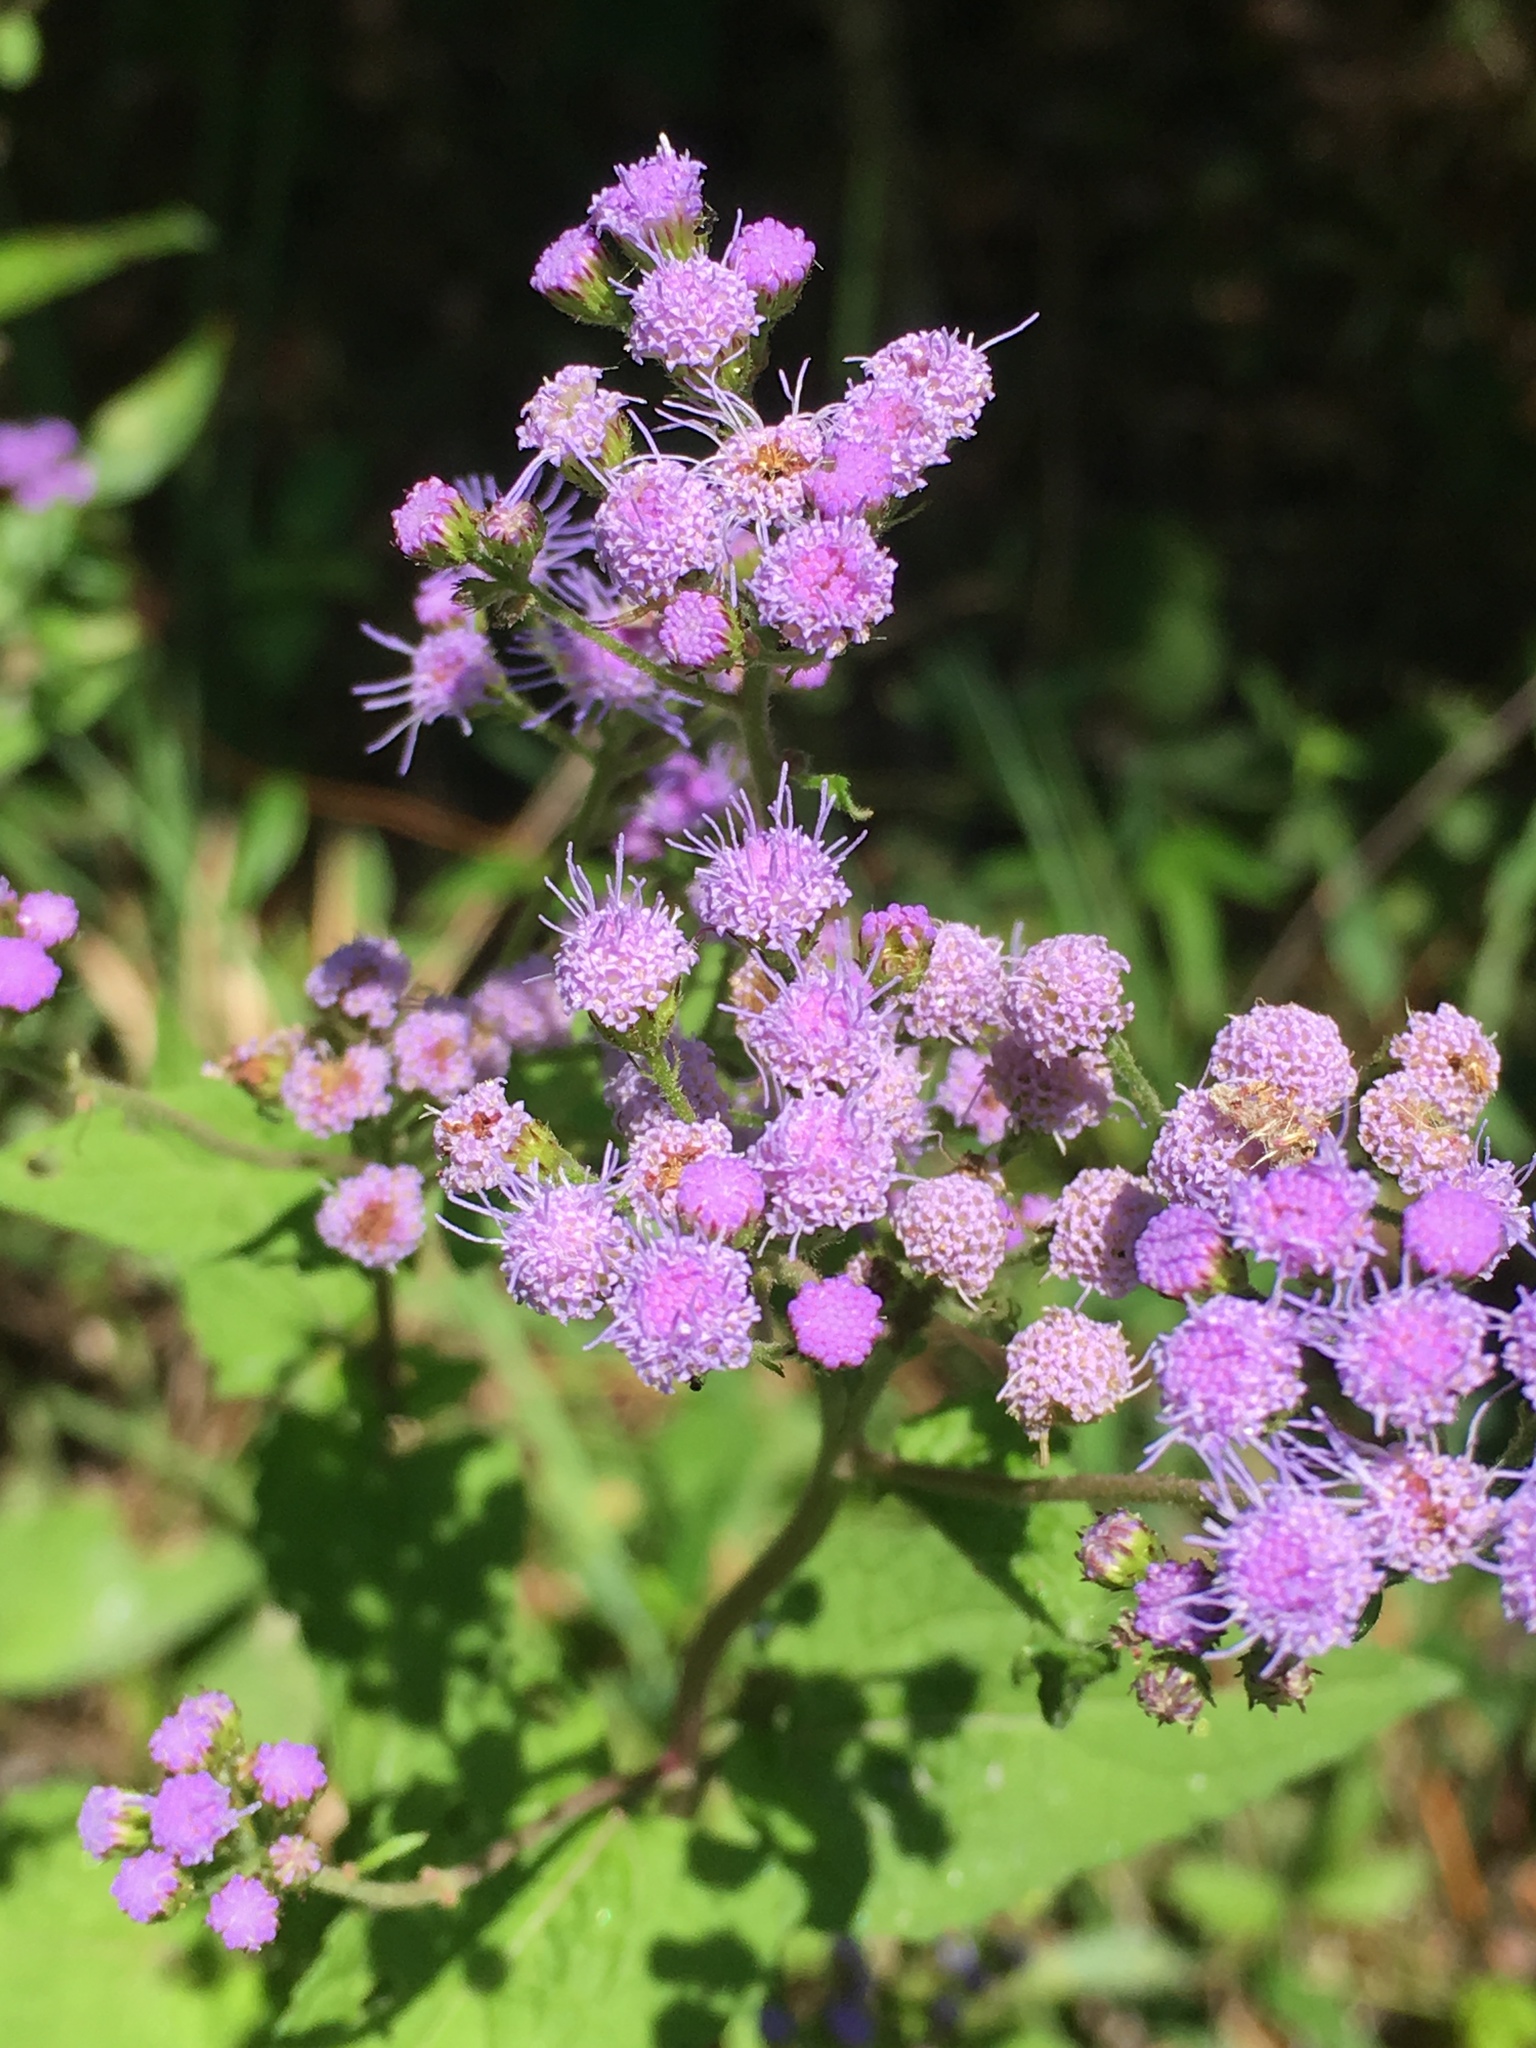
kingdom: Plantae
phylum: Tracheophyta
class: Magnoliopsida
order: Asterales
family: Asteraceae
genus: Conoclinium
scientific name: Conoclinium coelestinum
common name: Blue mistflower
